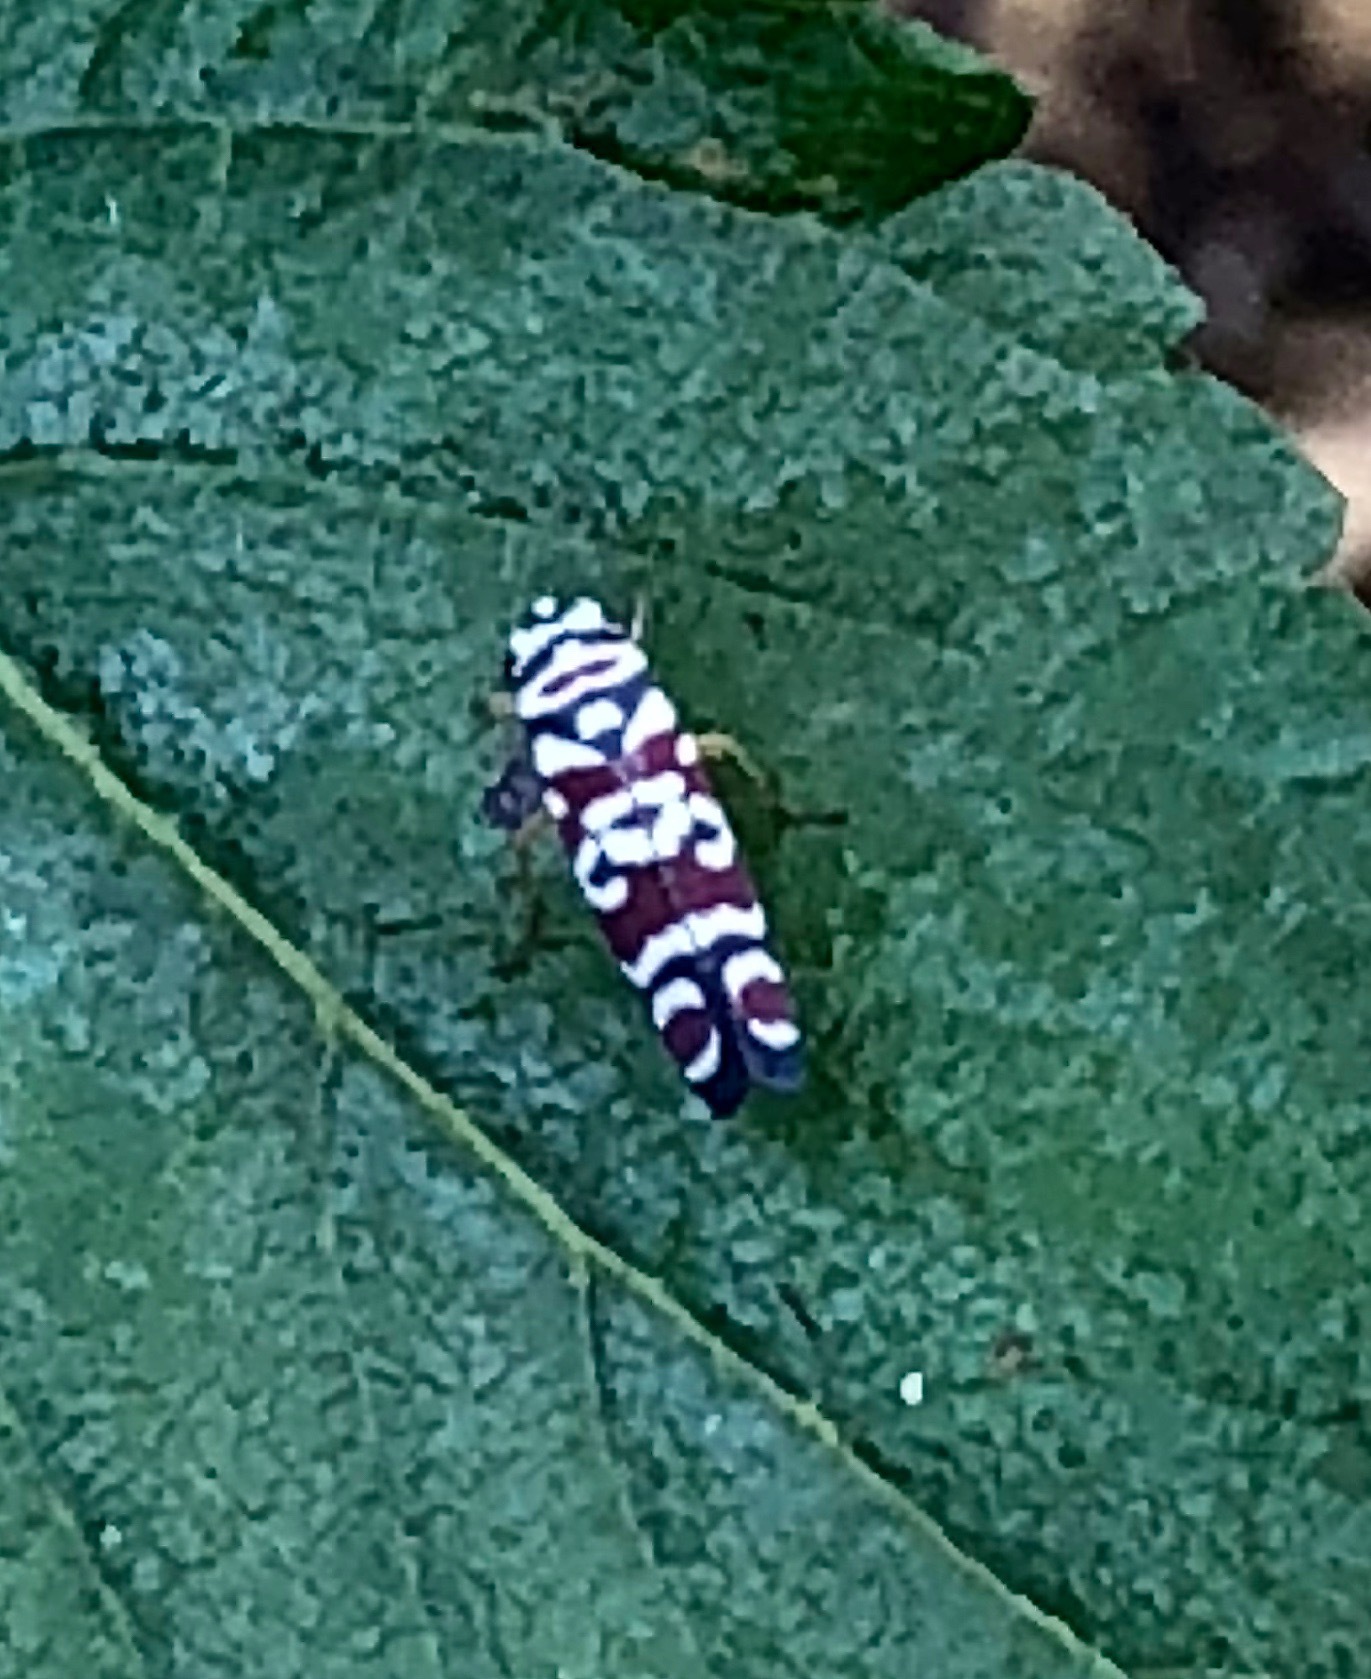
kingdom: Animalia
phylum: Arthropoda
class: Insecta
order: Hemiptera
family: Cicadellidae
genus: Agrosoma
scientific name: Agrosoma placetis
